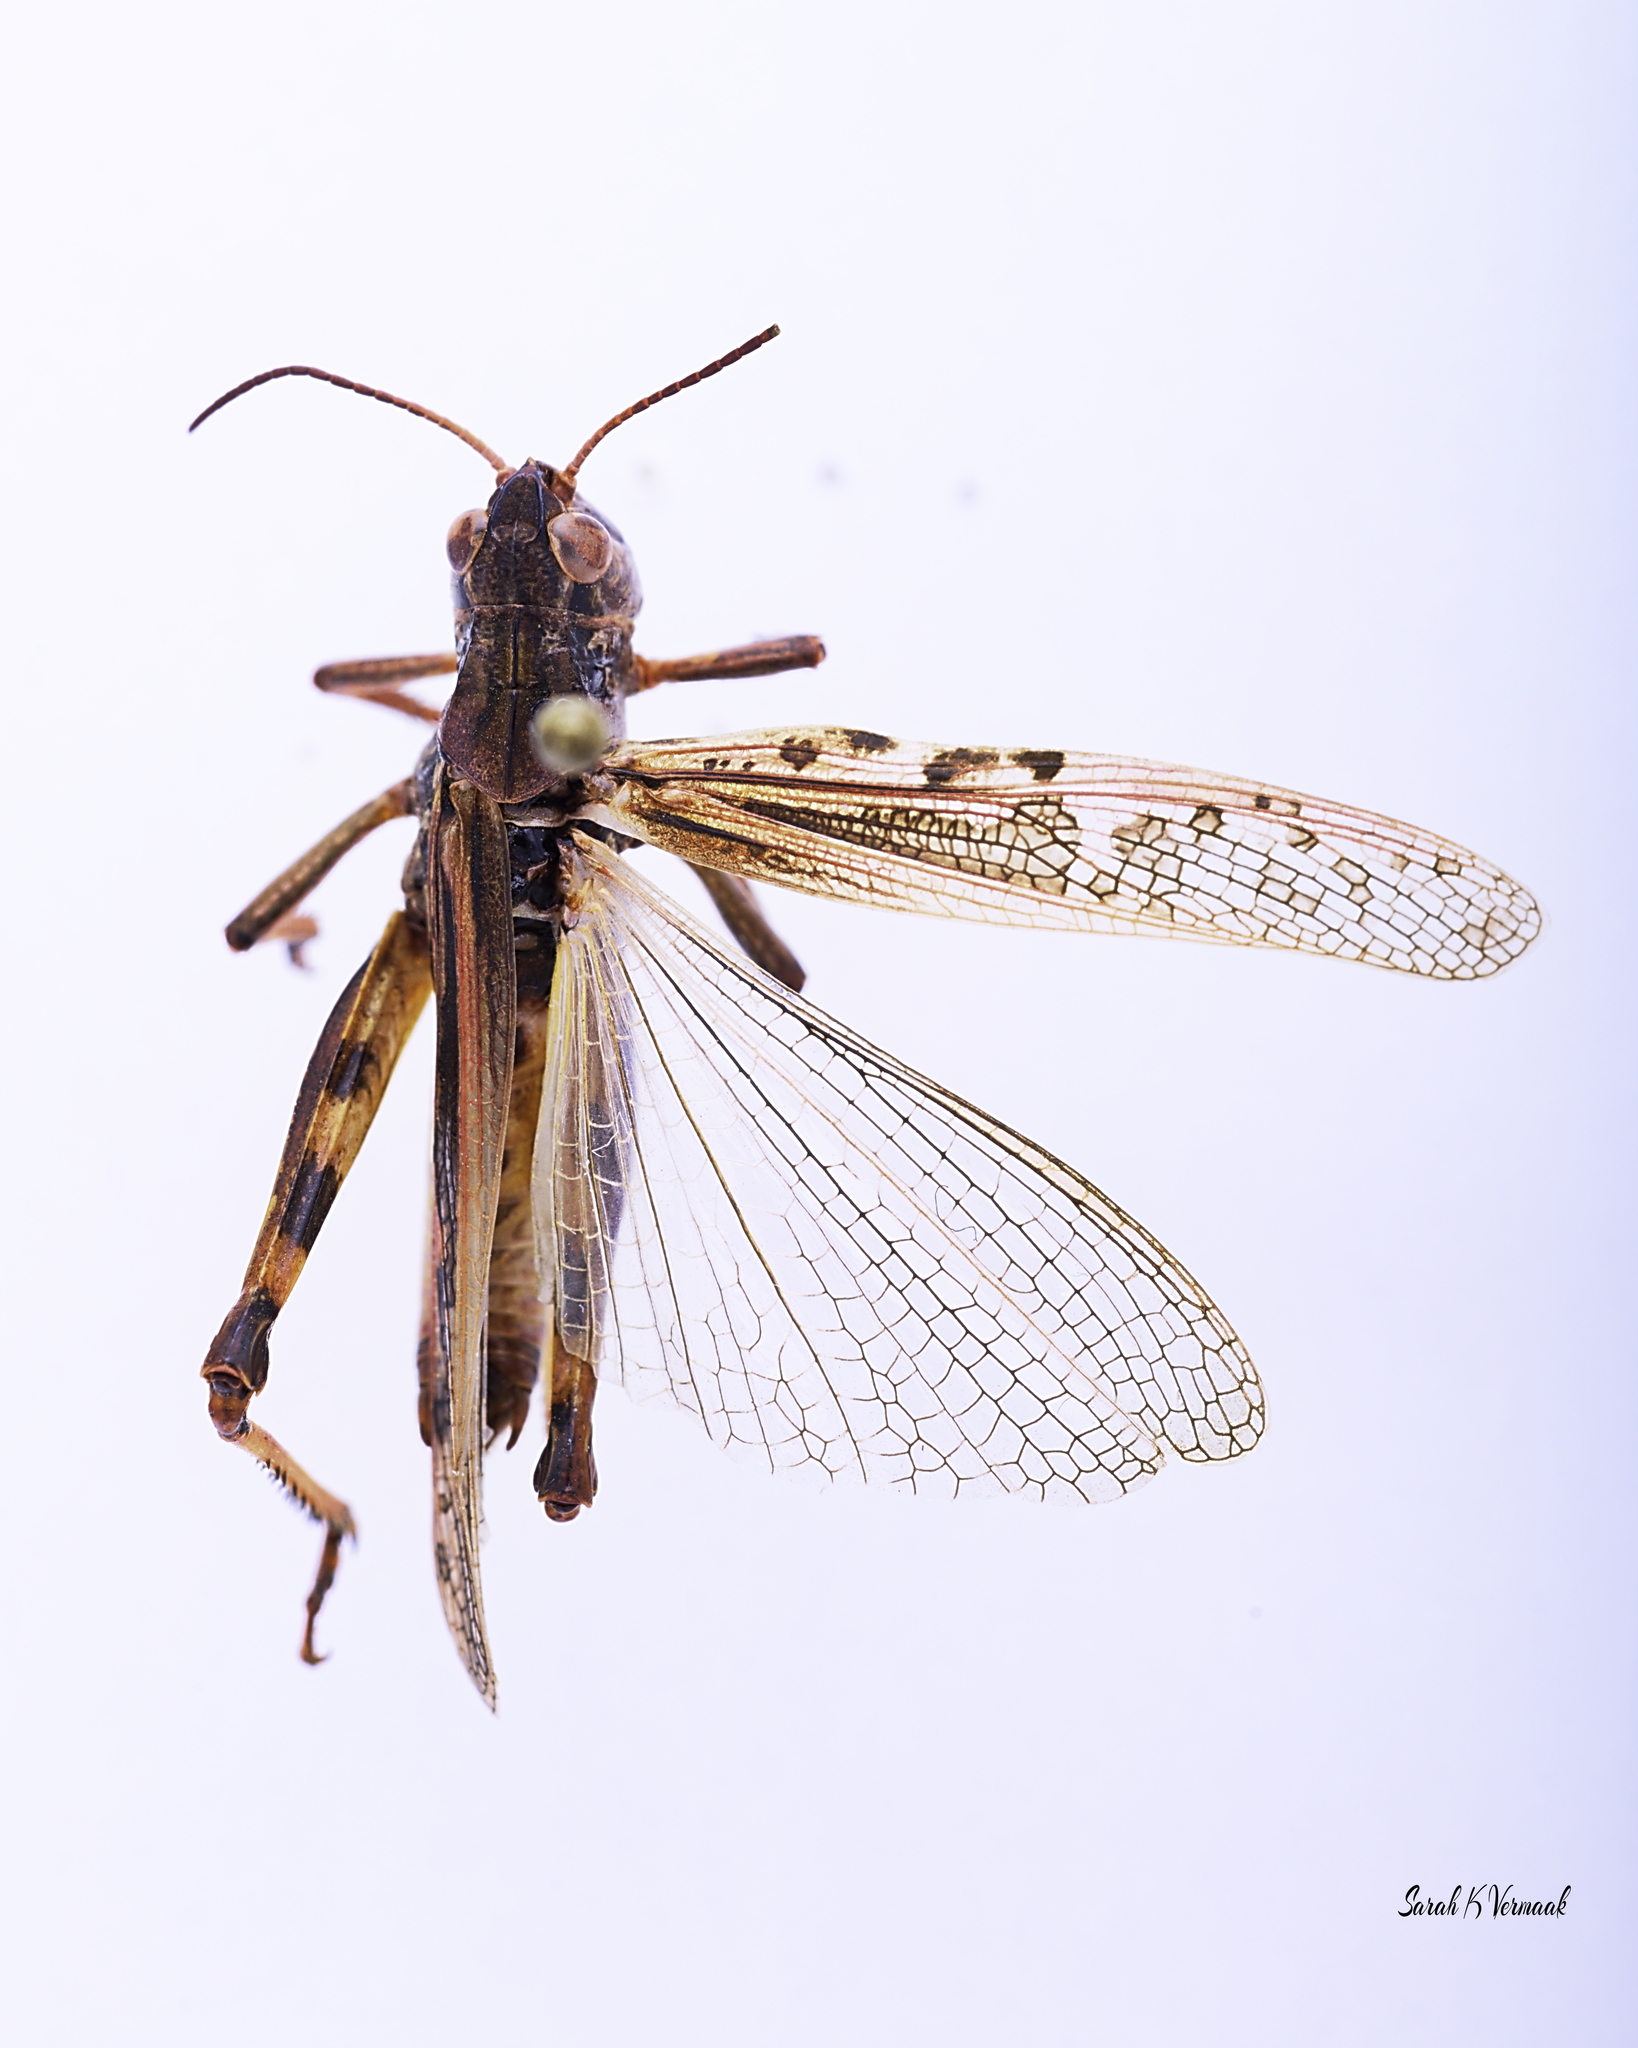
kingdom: Animalia
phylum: Arthropoda
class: Insecta
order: Orthoptera
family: Acrididae
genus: Camnula
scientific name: Camnula pellucida
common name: Clear-winged grasshopper
